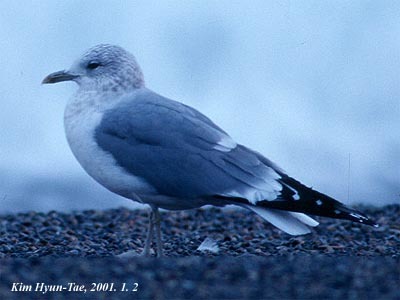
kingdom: Animalia
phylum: Chordata
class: Aves
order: Charadriiformes
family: Laridae
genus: Larus
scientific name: Larus canus
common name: Mew gull
